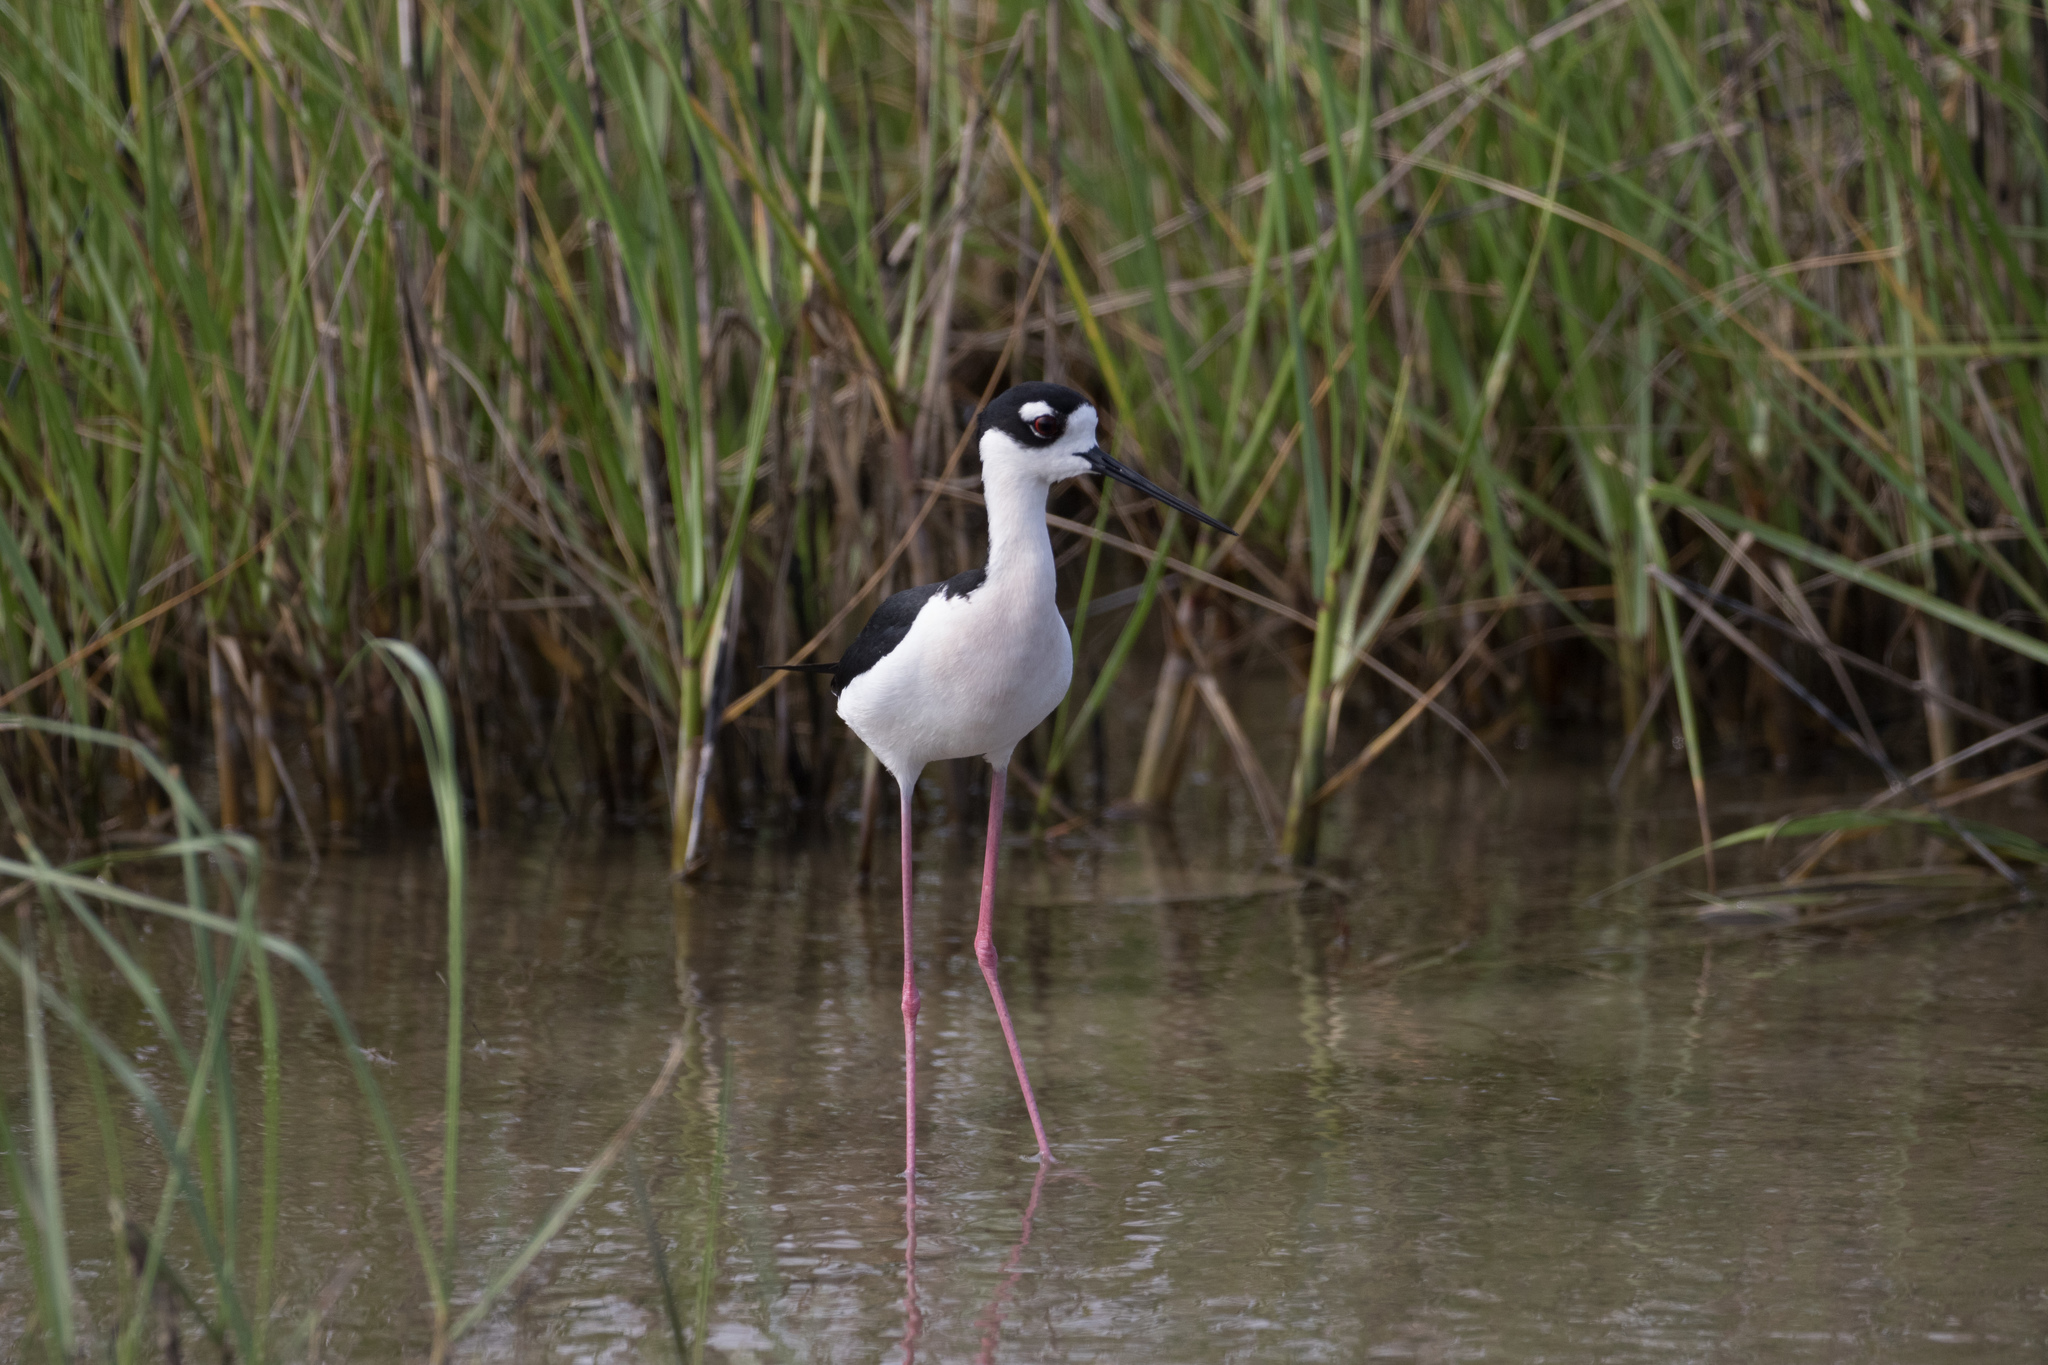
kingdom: Animalia
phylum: Chordata
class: Aves
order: Charadriiformes
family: Recurvirostridae
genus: Himantopus
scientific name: Himantopus mexicanus
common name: Black-necked stilt
